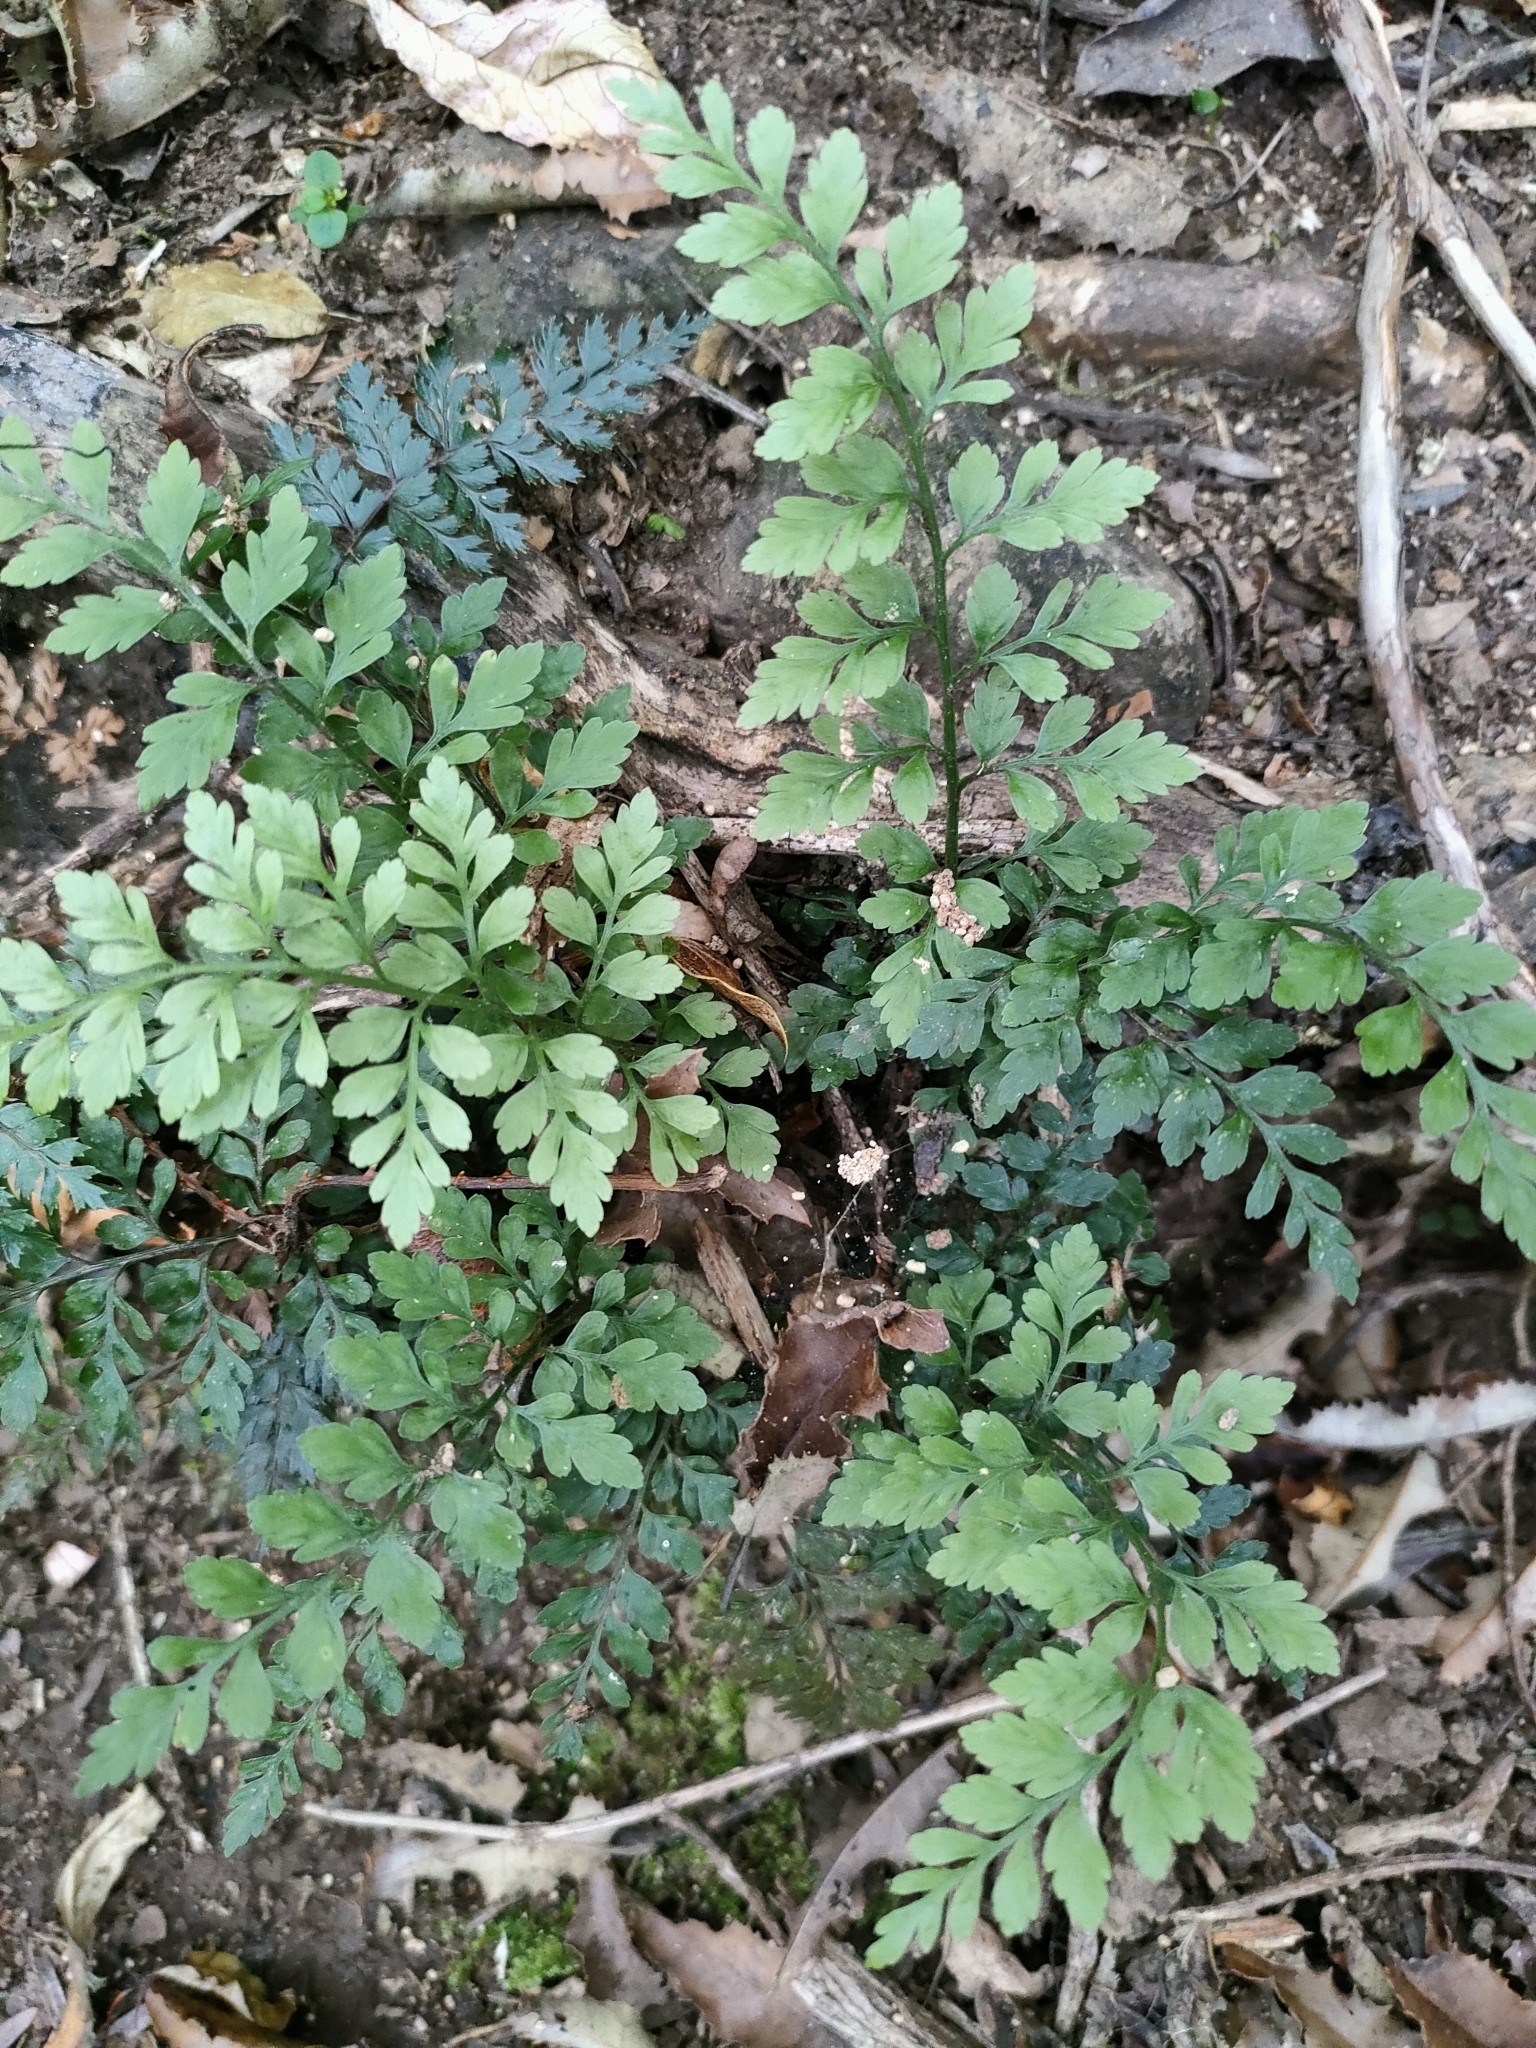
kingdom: Plantae
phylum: Tracheophyta
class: Polypodiopsida
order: Polypodiales
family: Aspleniaceae
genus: Asplenium
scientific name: Asplenium hookerianum
